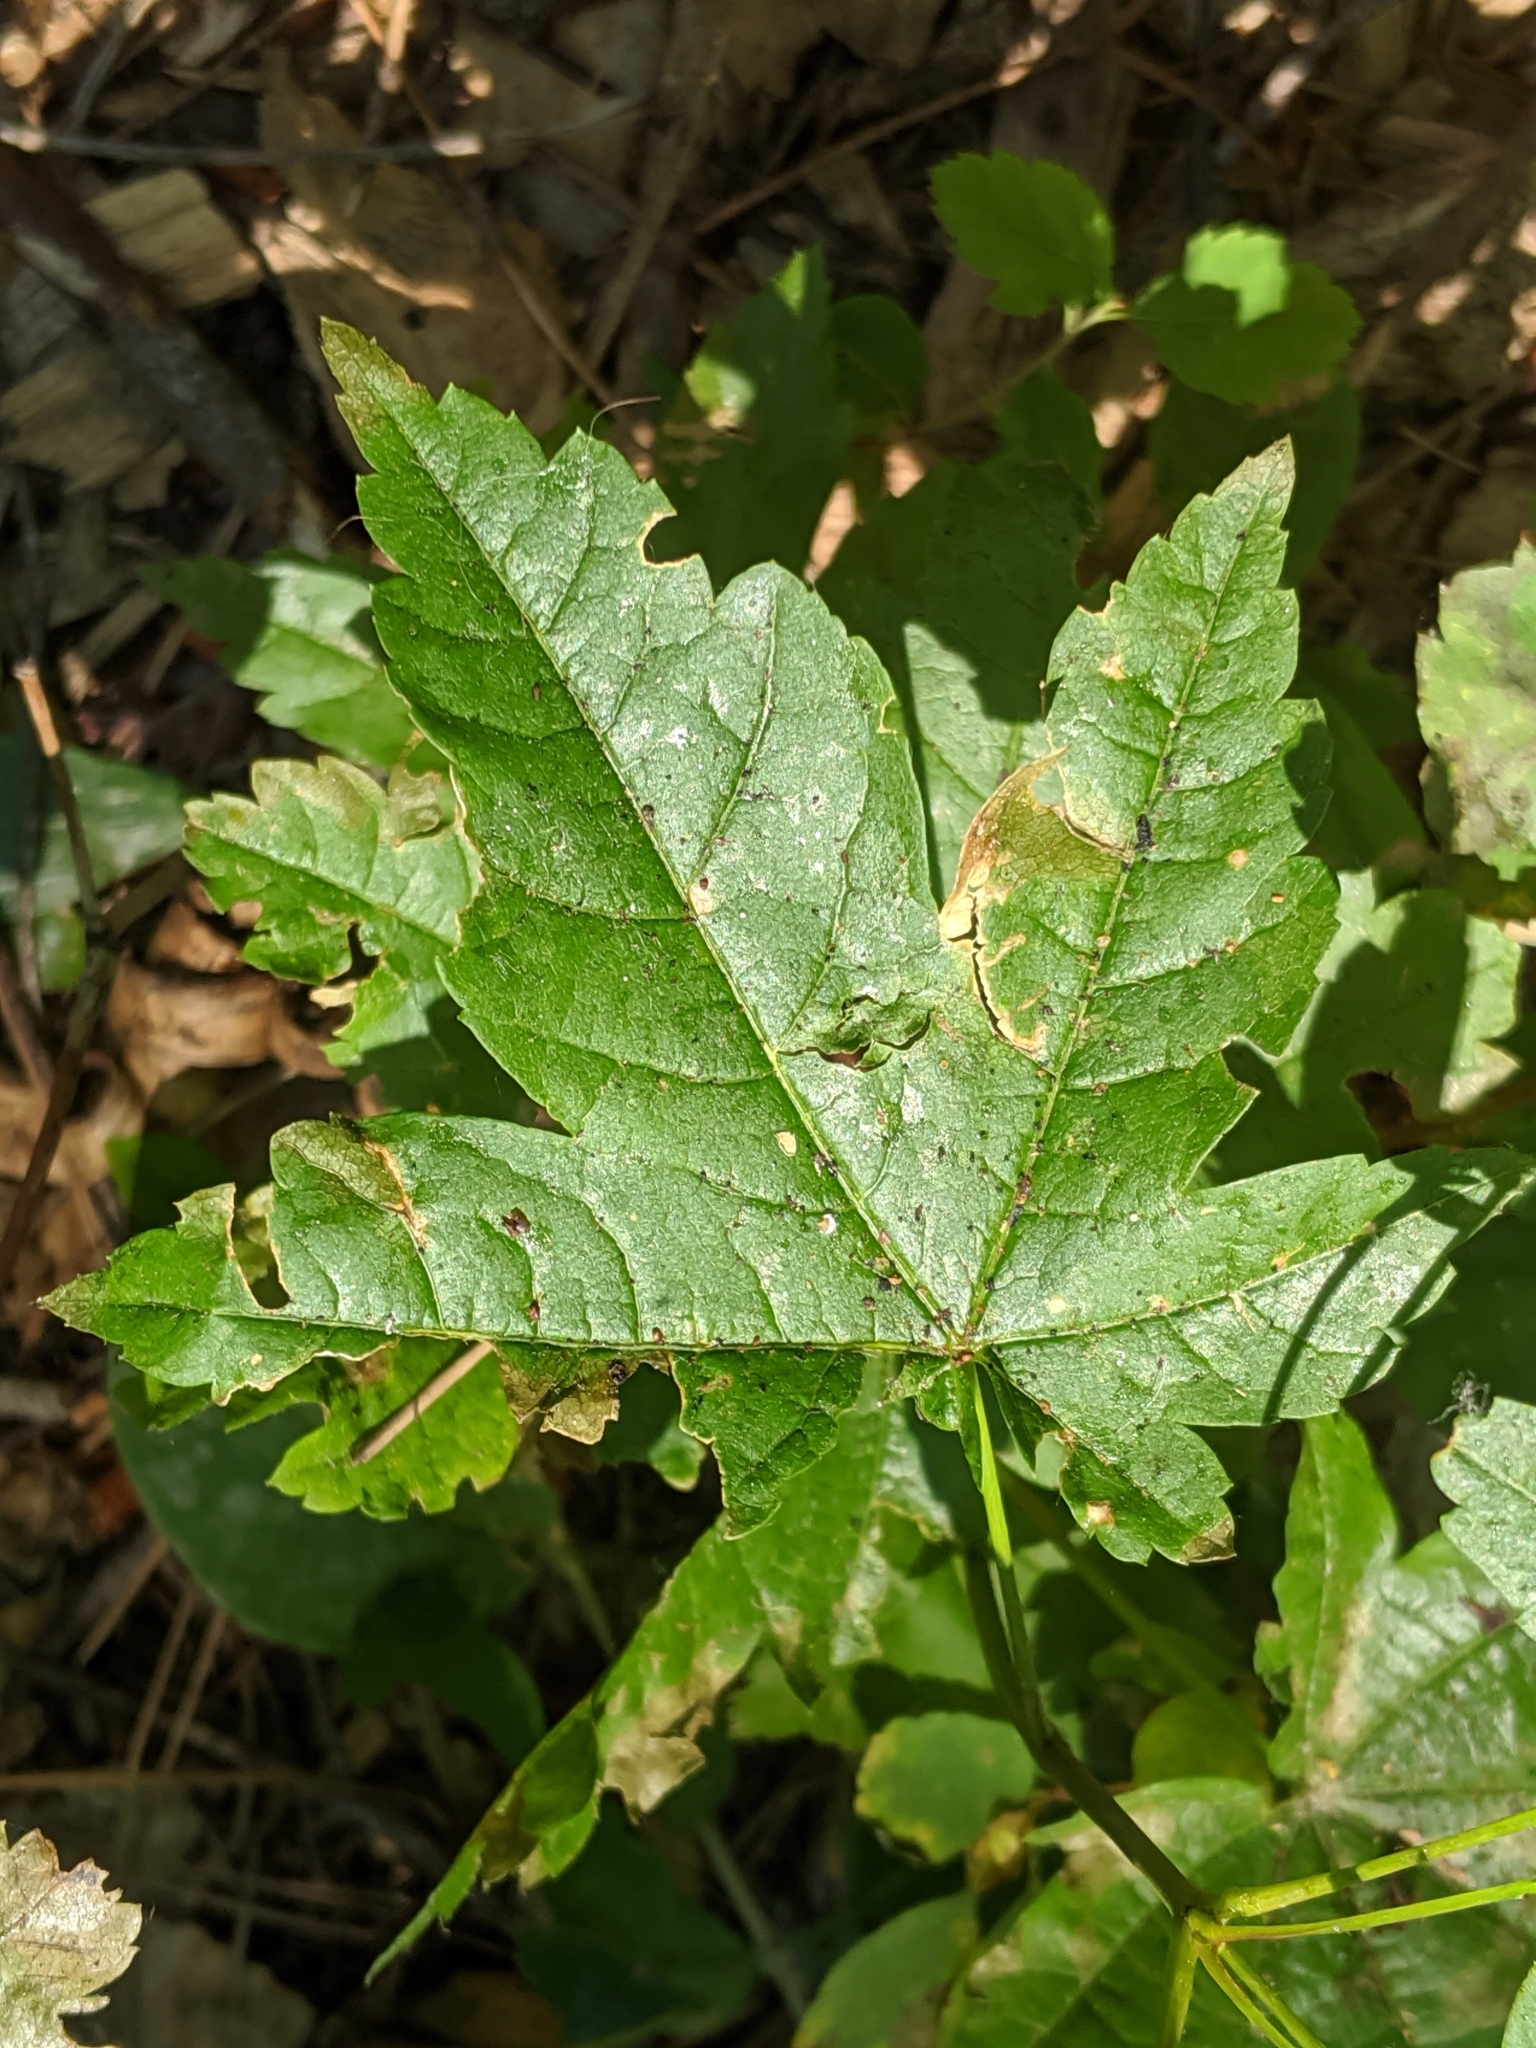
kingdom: Plantae
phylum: Tracheophyta
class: Magnoliopsida
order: Sapindales
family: Sapindaceae
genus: Acer
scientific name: Acer circinatum
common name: Vine maple
